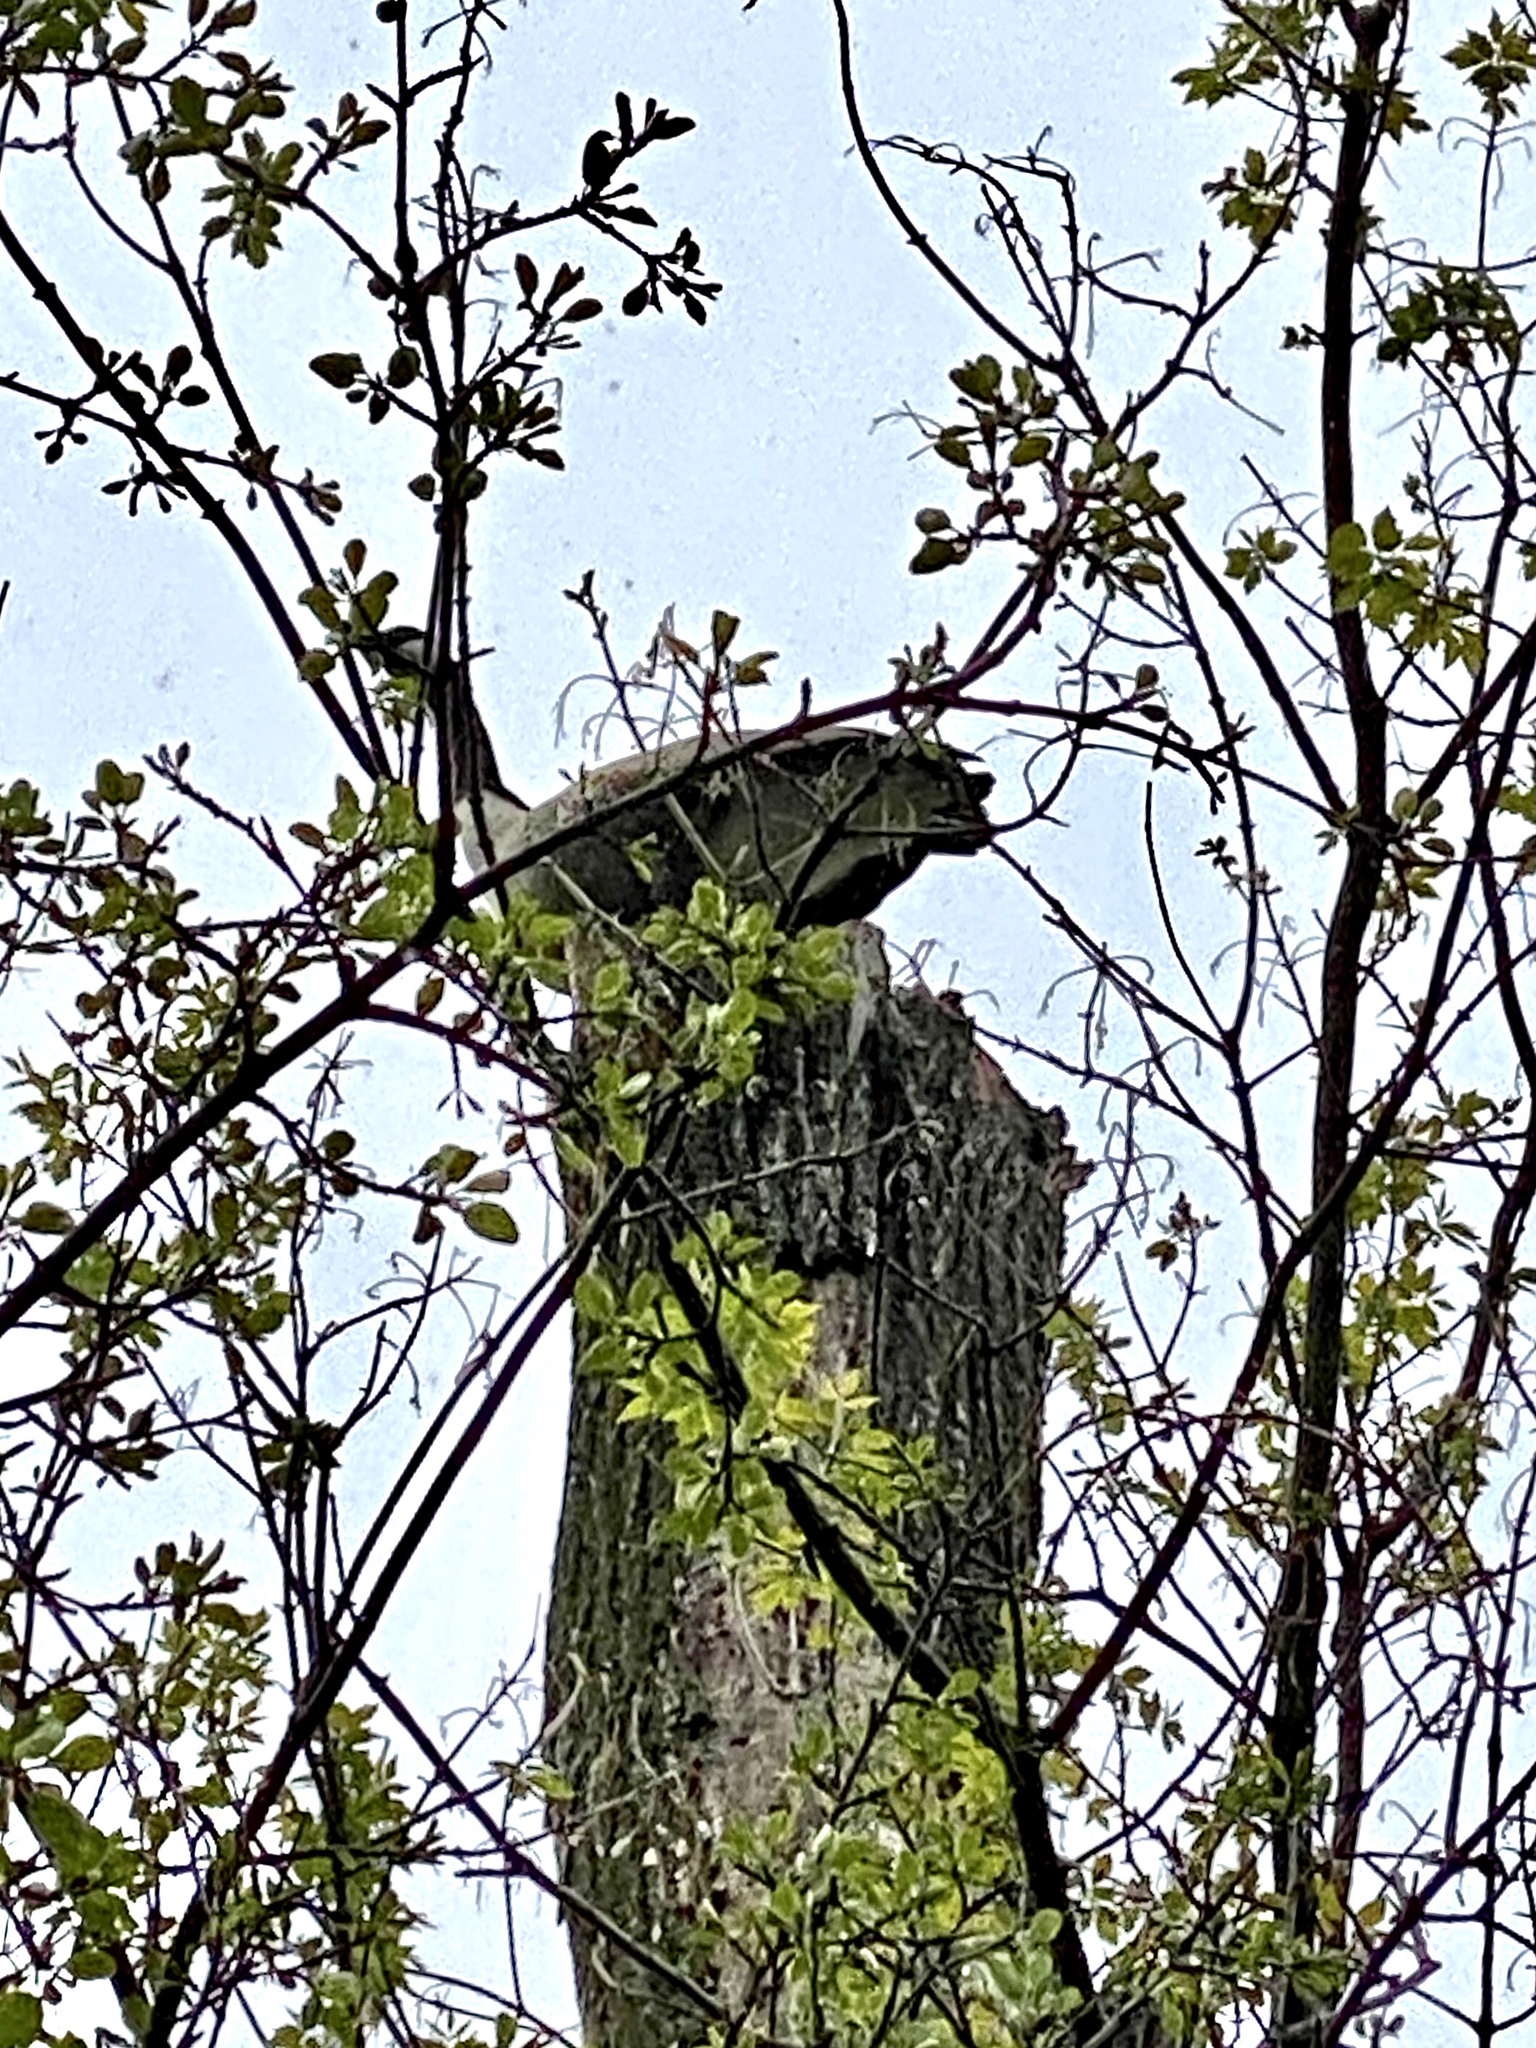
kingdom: Animalia
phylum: Chordata
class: Aves
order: Anseriformes
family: Anatidae
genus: Branta
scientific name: Branta canadensis
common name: Canada goose
